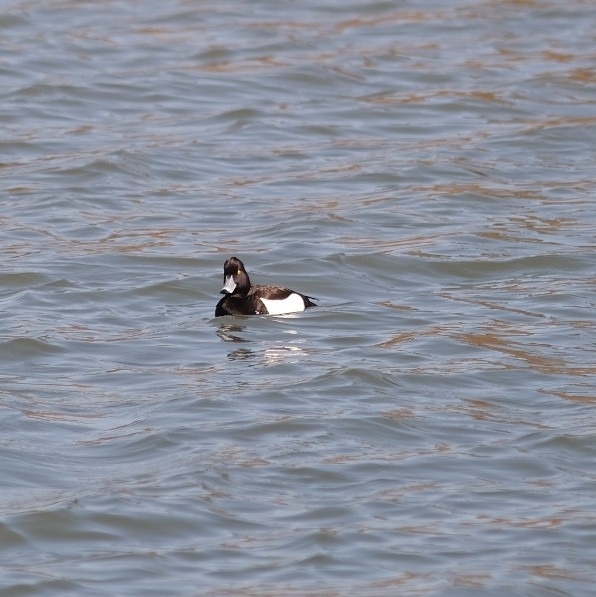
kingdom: Animalia
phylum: Chordata
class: Aves
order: Anseriformes
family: Anatidae
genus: Aythya
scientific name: Aythya fuligula
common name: Tufted duck
